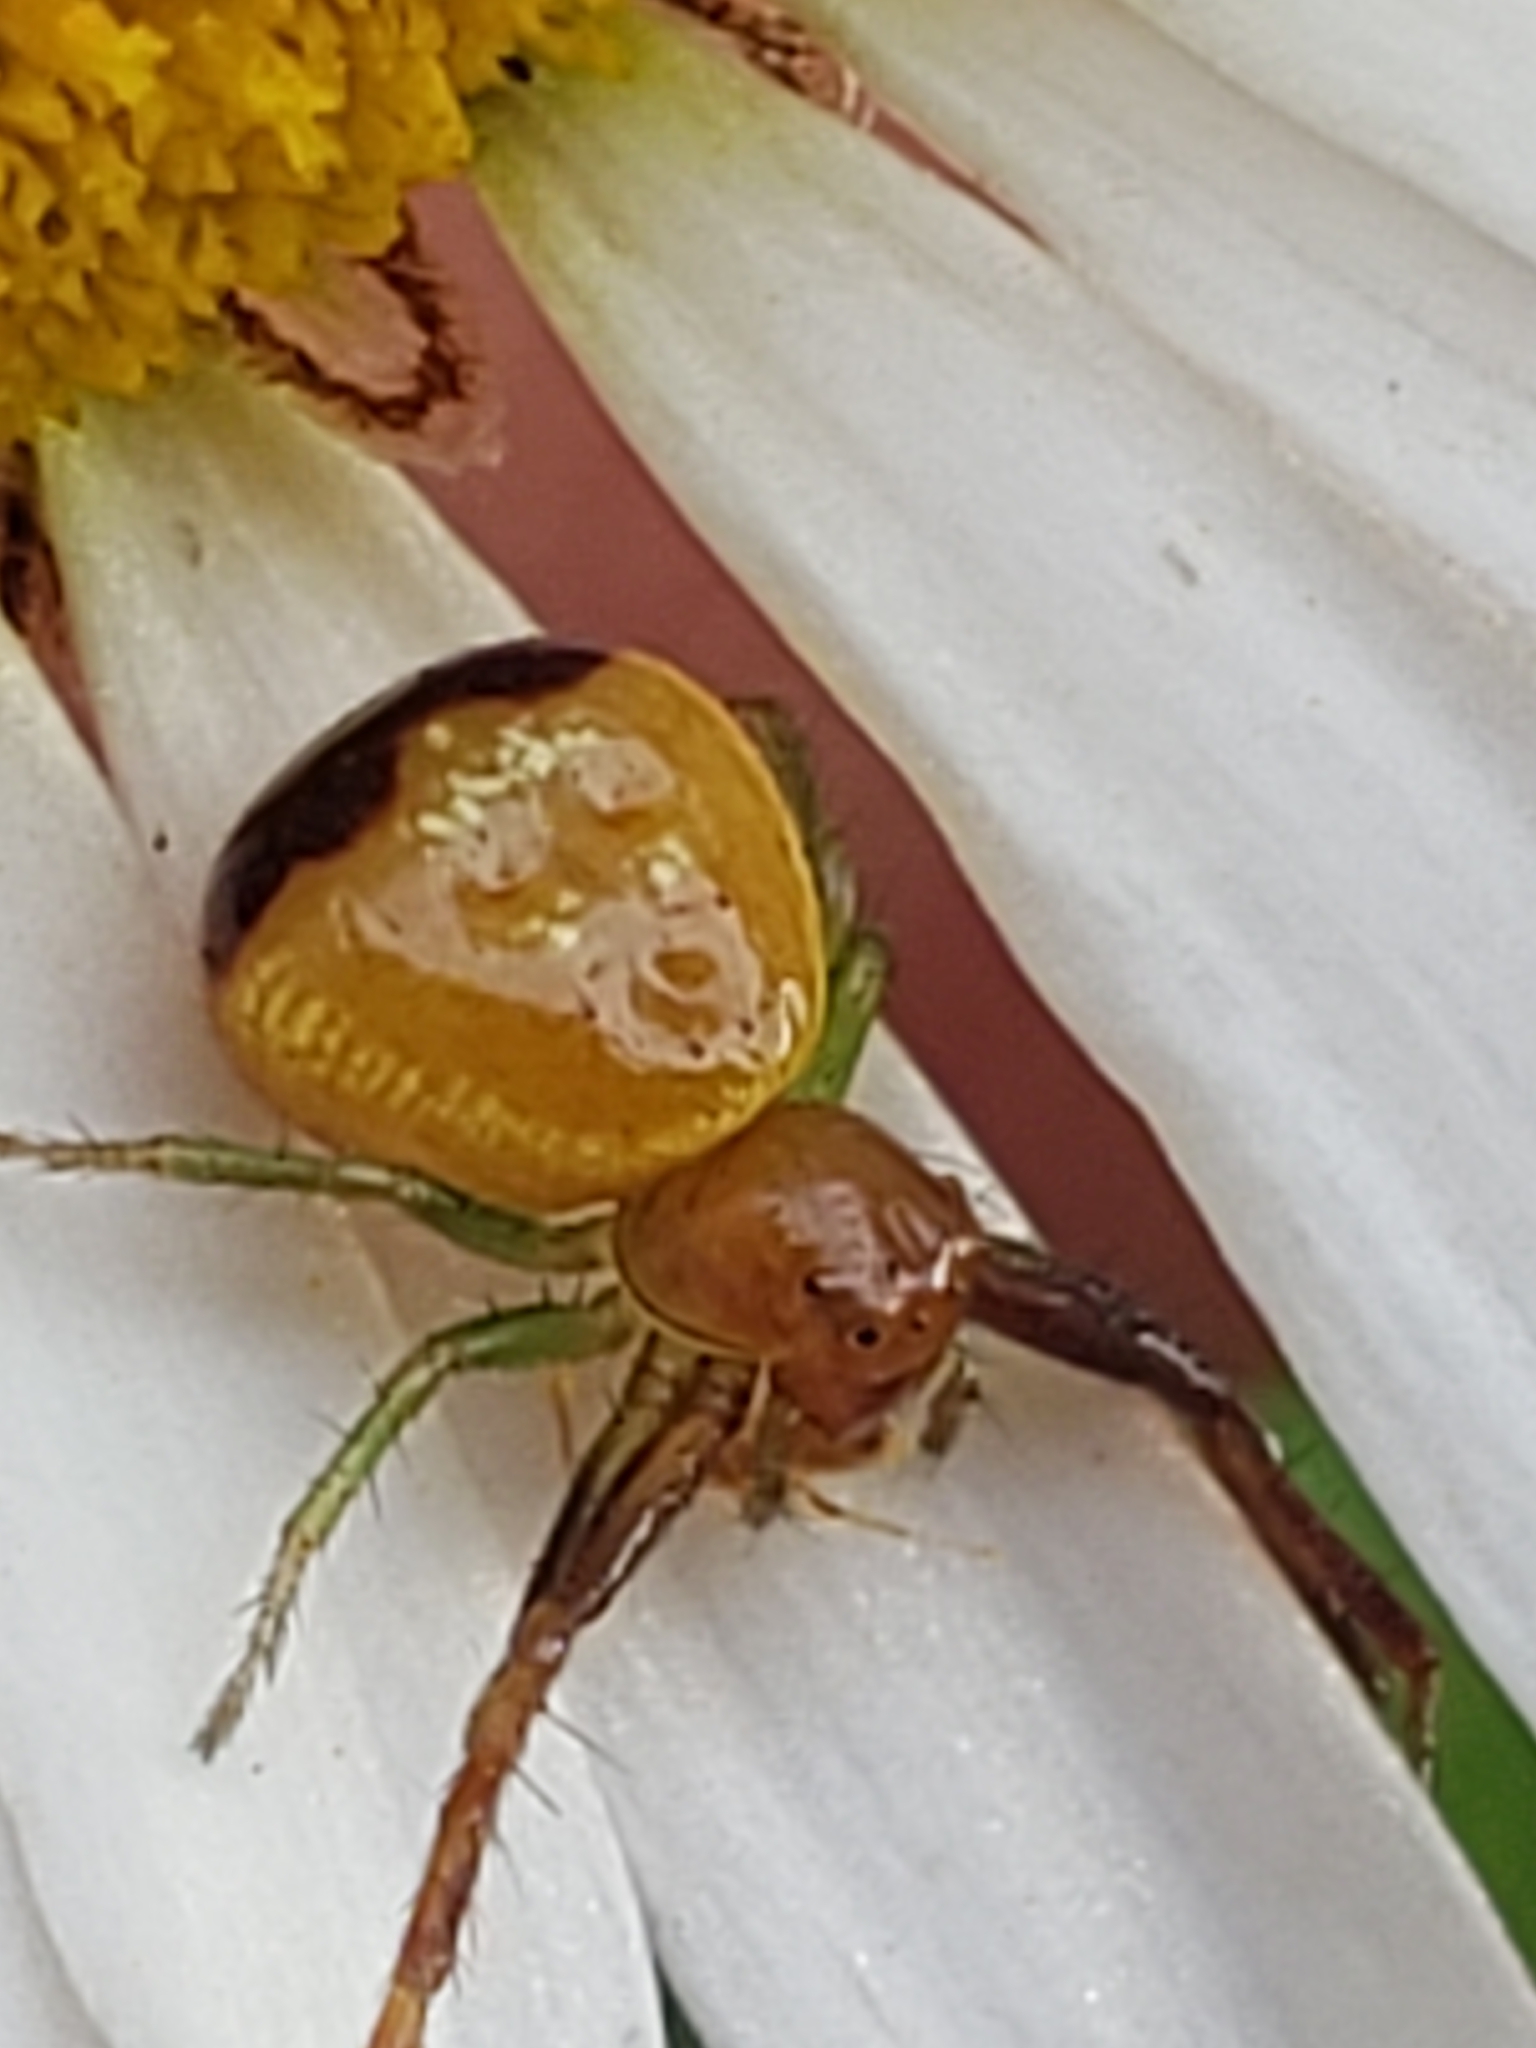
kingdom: Animalia
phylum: Arthropoda
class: Arachnida
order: Araneae
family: Thomisidae
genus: Synema
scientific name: Synema parvulum
